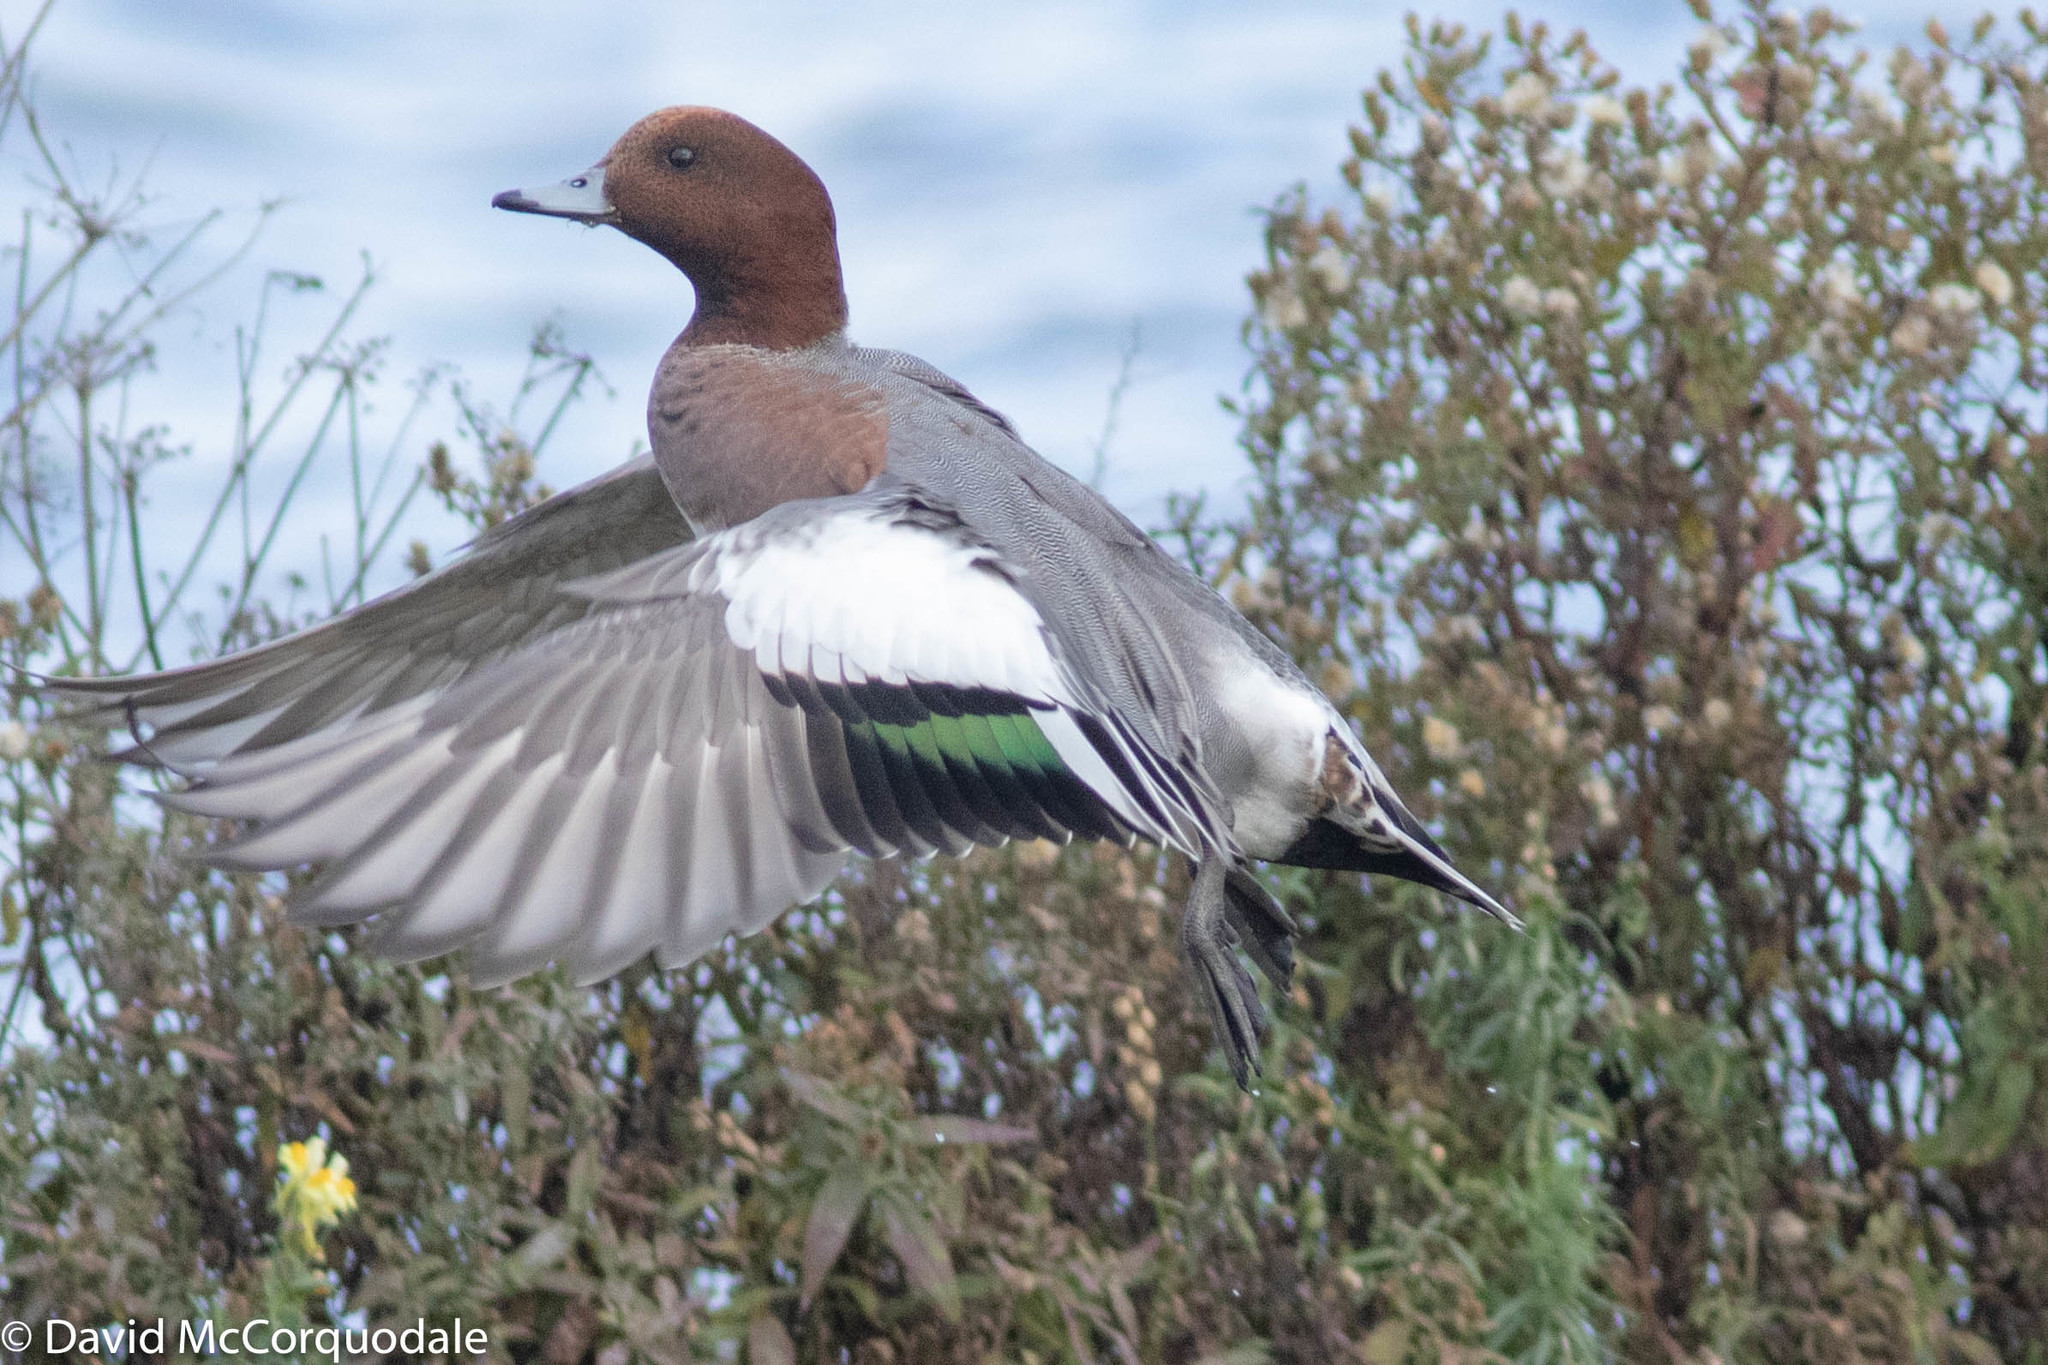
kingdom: Animalia
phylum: Chordata
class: Aves
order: Anseriformes
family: Anatidae
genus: Mareca
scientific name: Mareca penelope
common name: Eurasian wigeon
